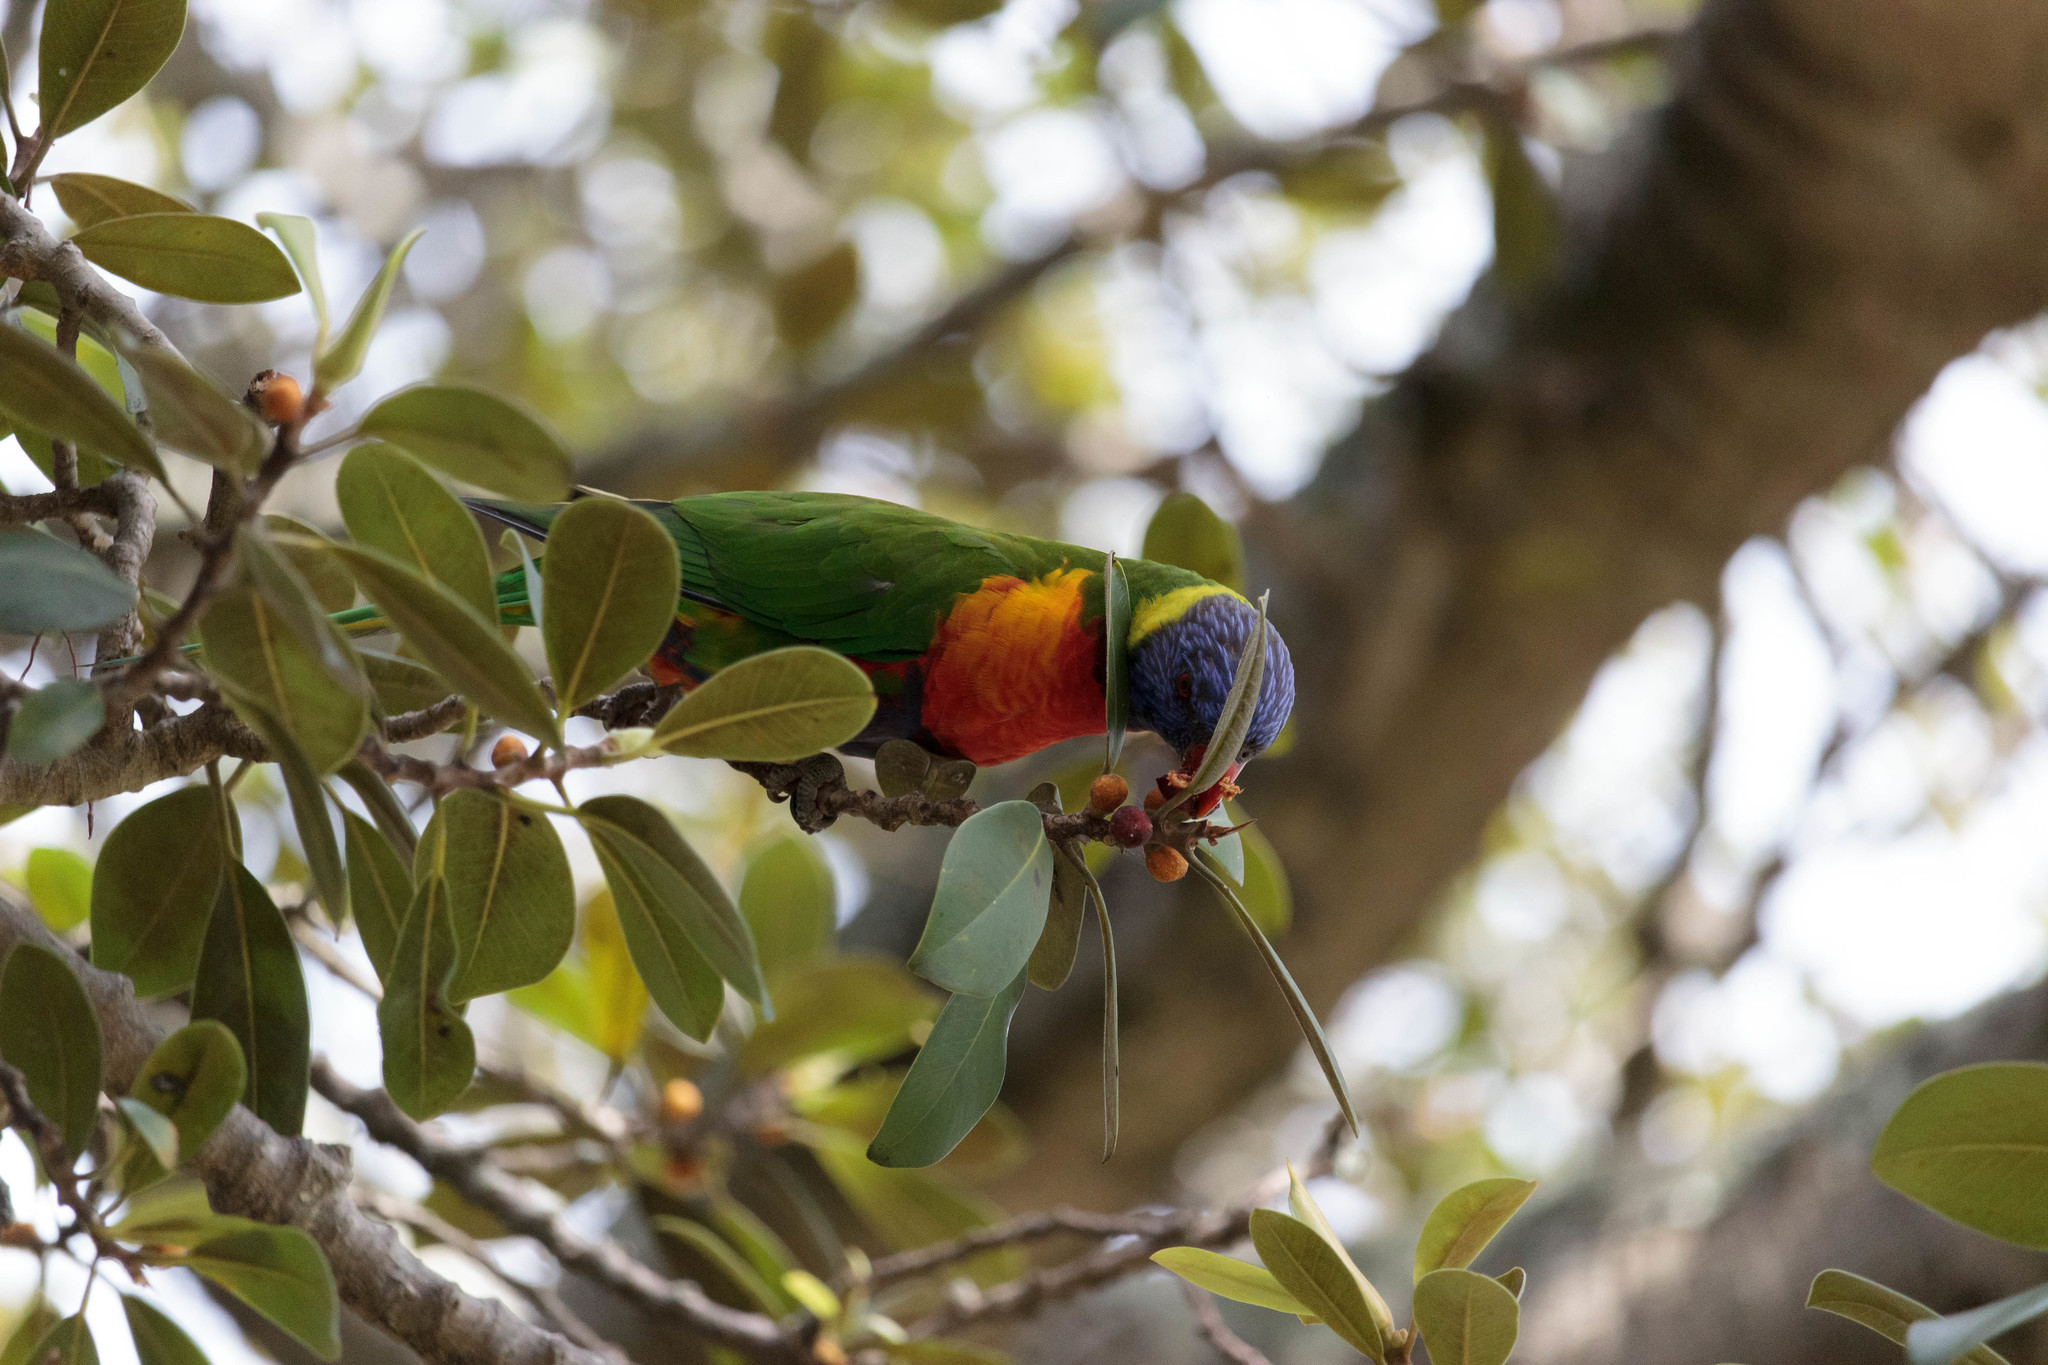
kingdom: Animalia
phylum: Chordata
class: Aves
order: Psittaciformes
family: Psittacidae
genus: Trichoglossus
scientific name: Trichoglossus haematodus
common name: Coconut lorikeet
